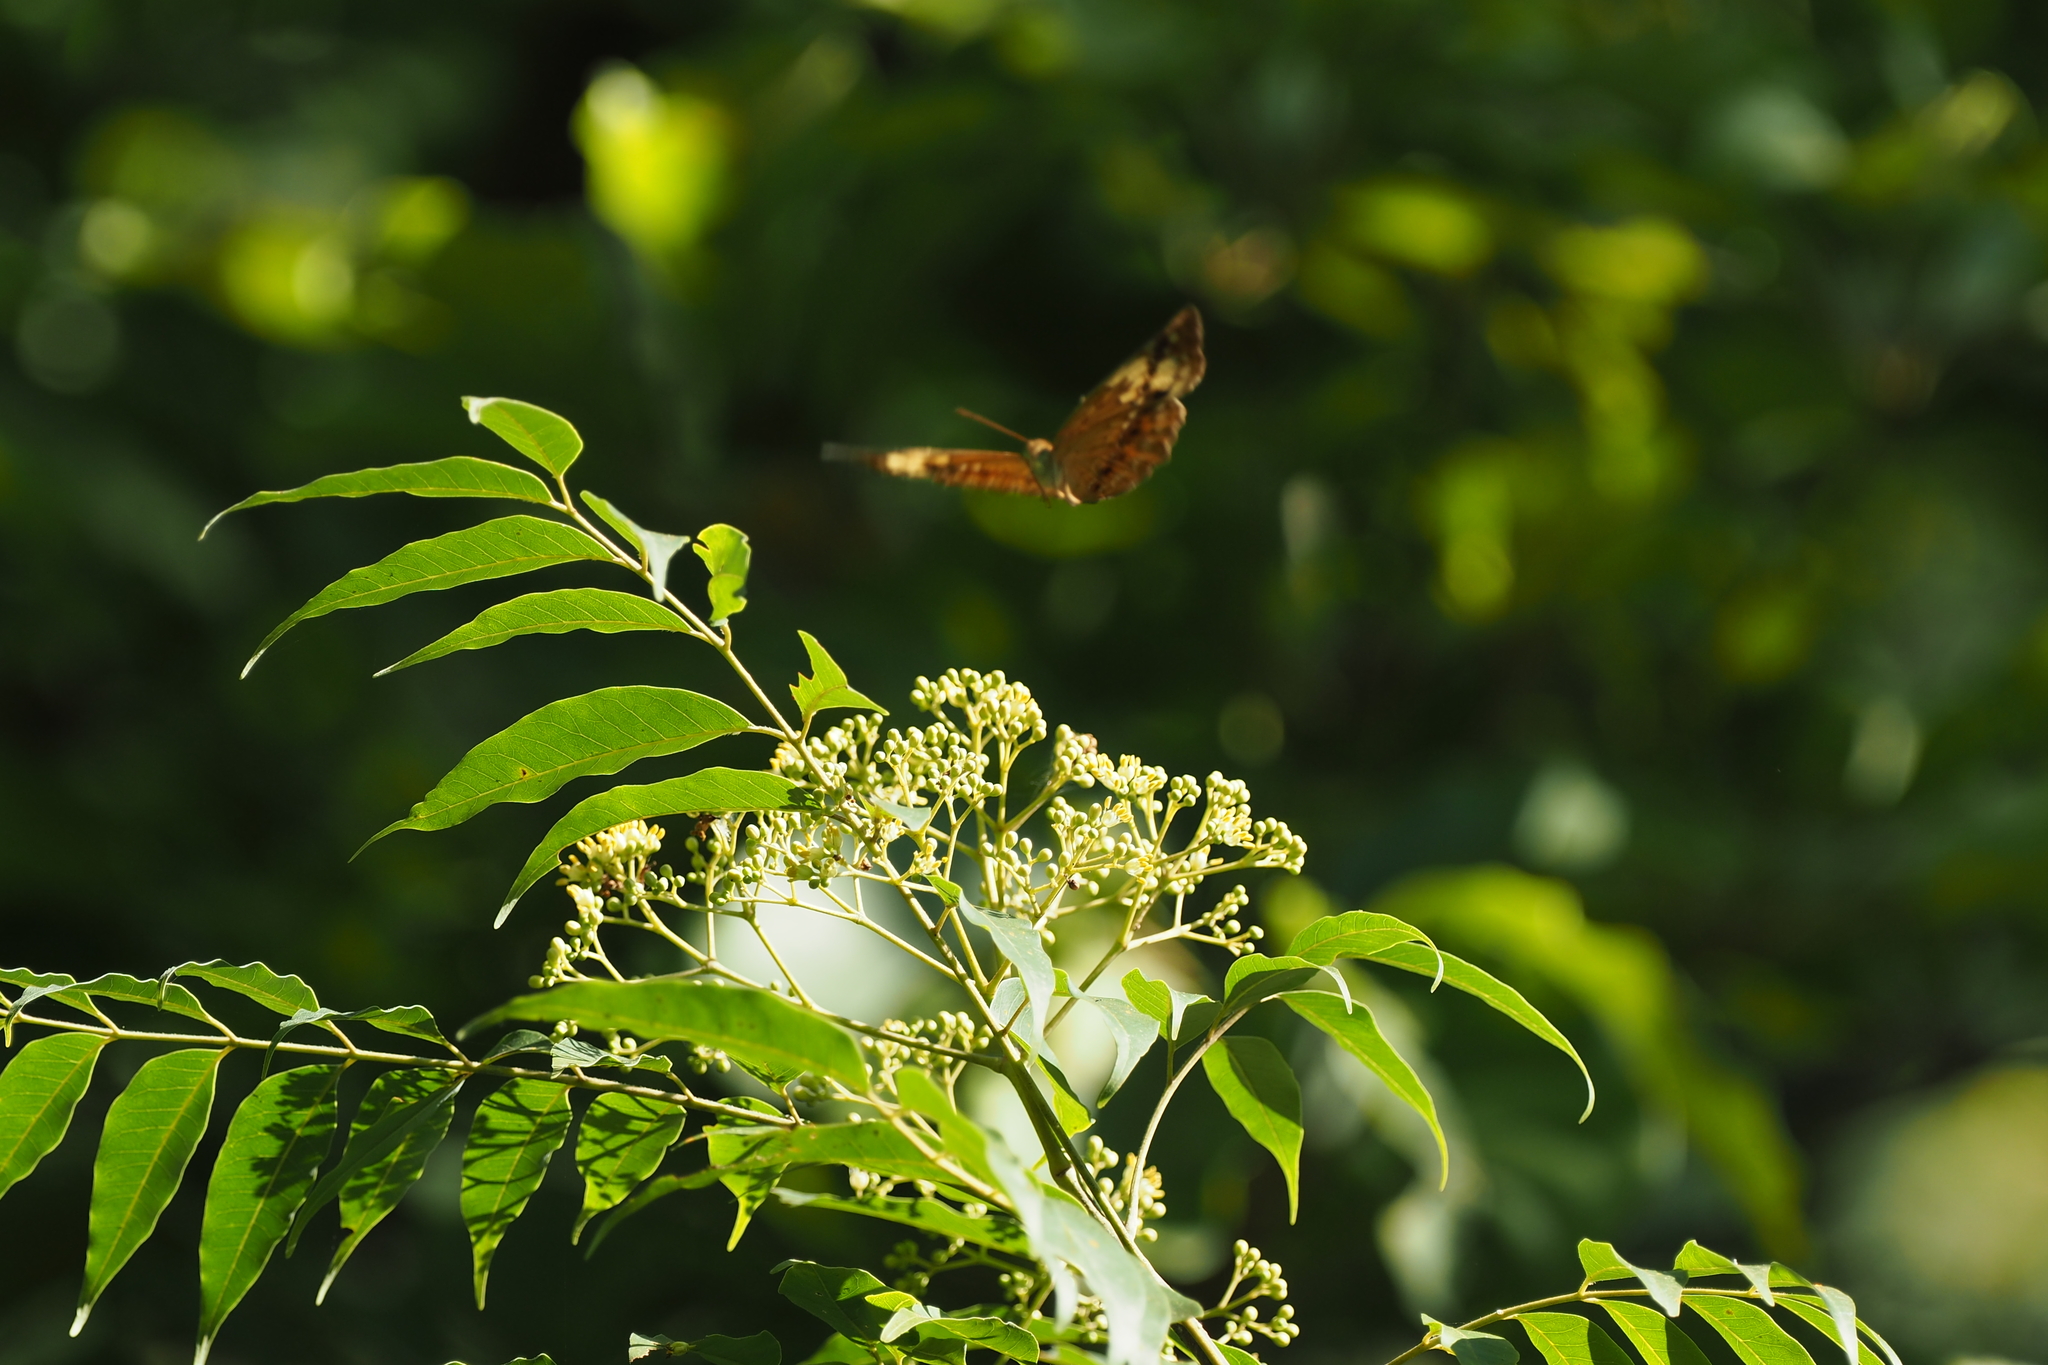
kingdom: Animalia
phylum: Arthropoda
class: Insecta
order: Lepidoptera
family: Nymphalidae
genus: Cupha
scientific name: Cupha erymanthis
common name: Rustic
